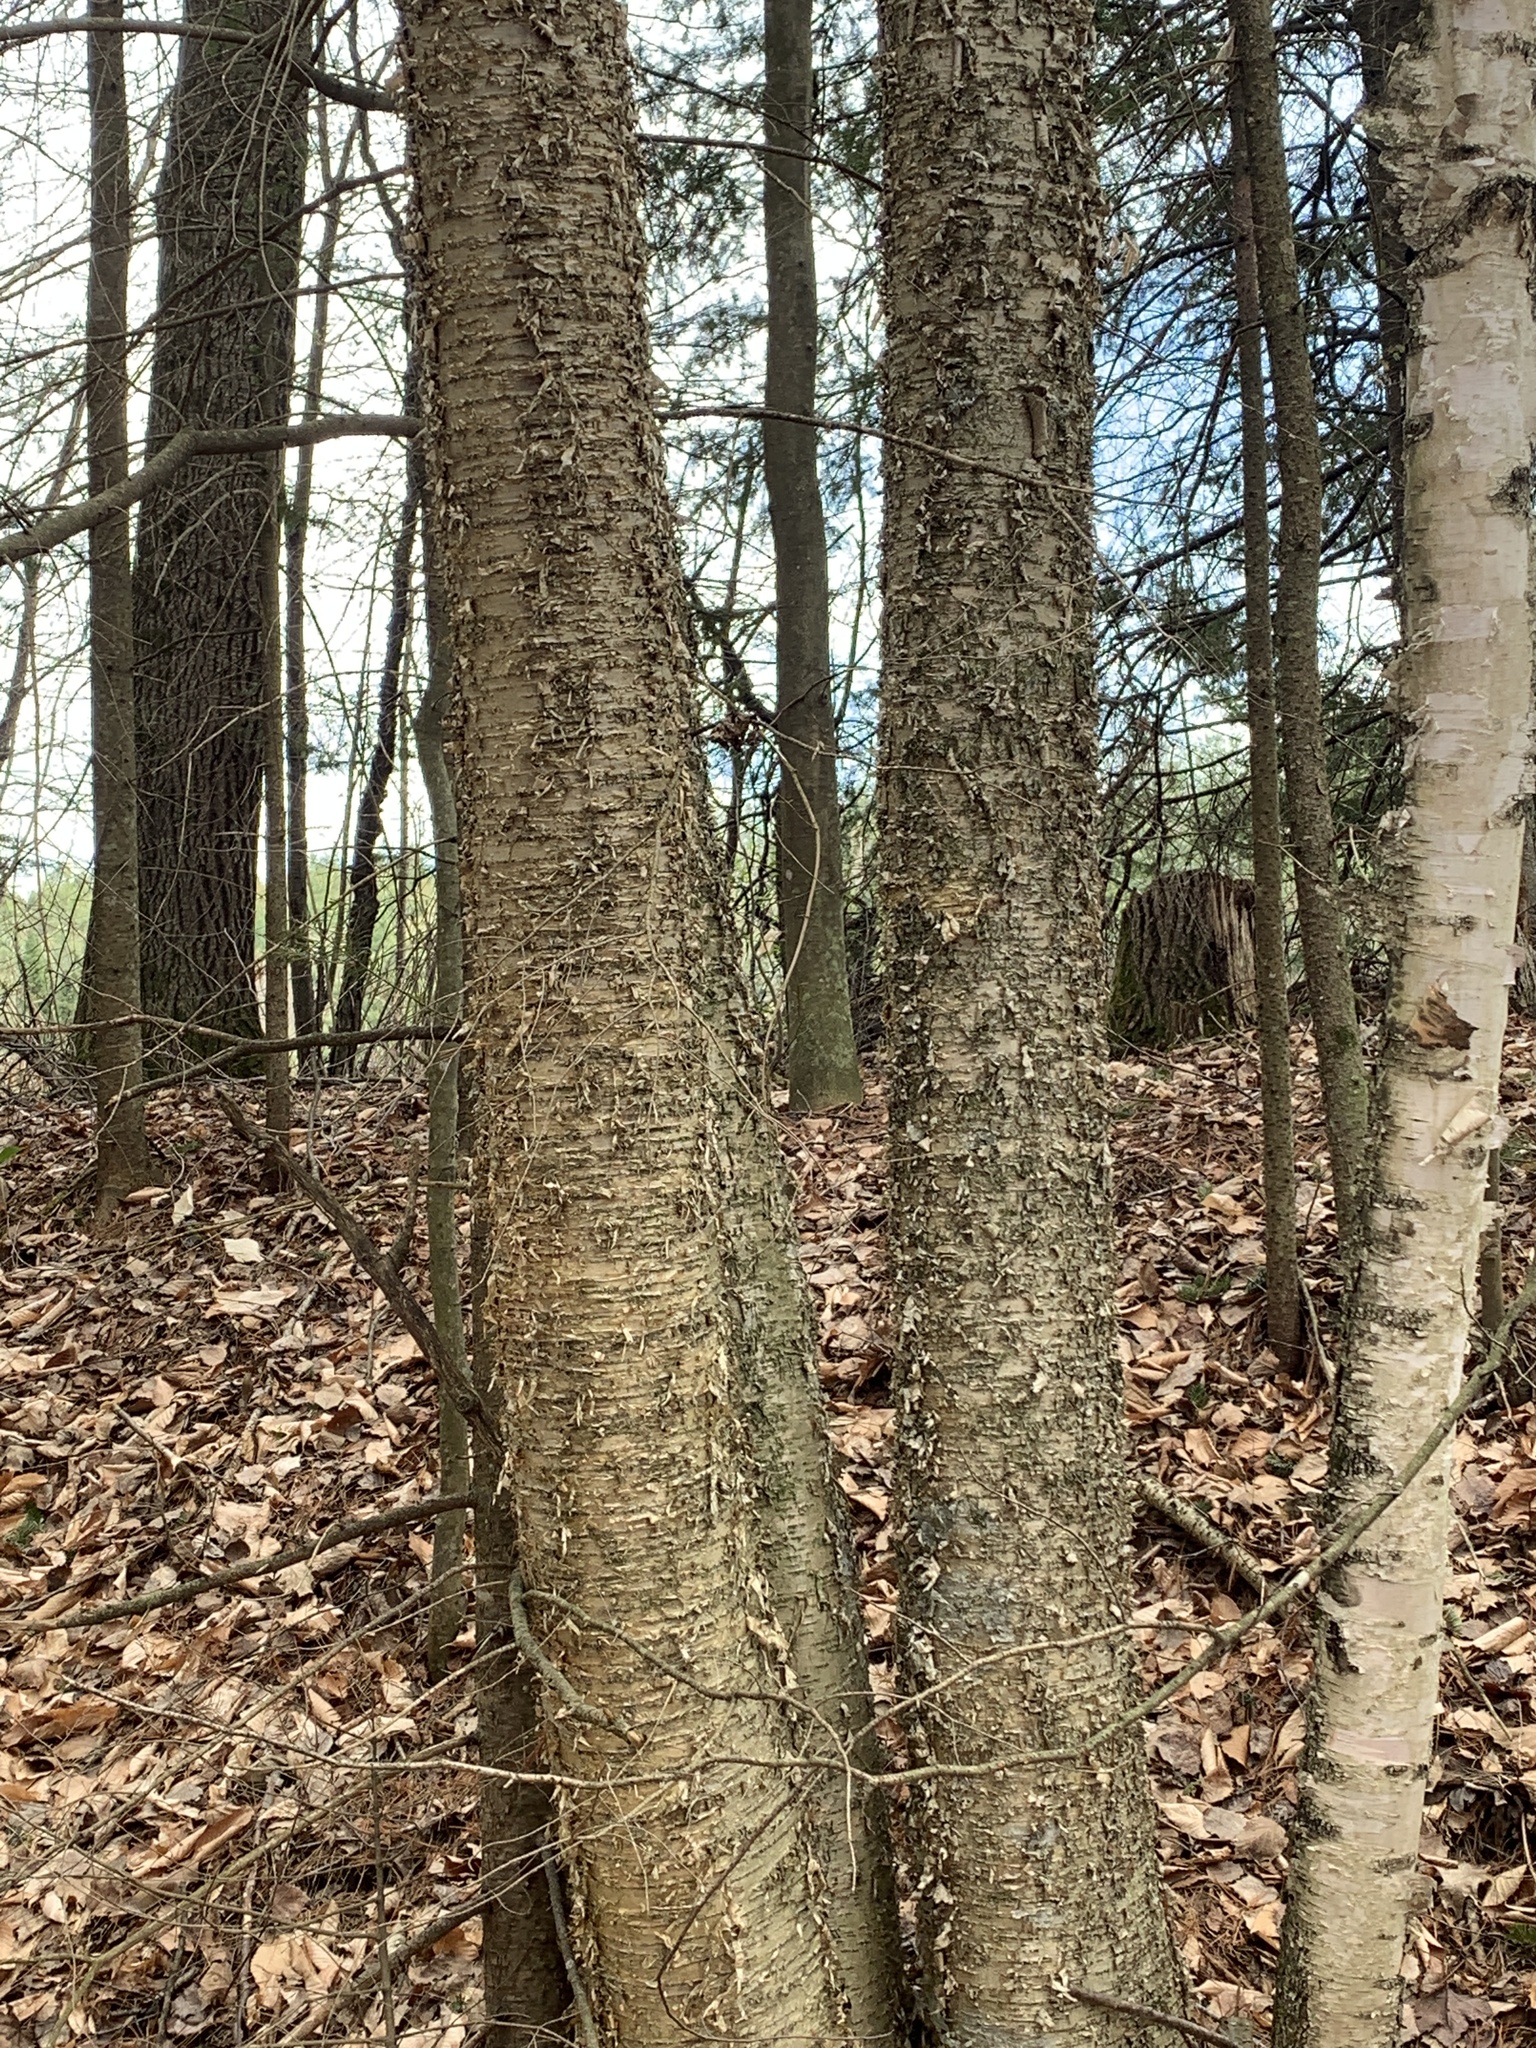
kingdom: Plantae
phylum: Tracheophyta
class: Magnoliopsida
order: Fagales
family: Betulaceae
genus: Betula
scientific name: Betula alleghaniensis
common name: Yellow birch
